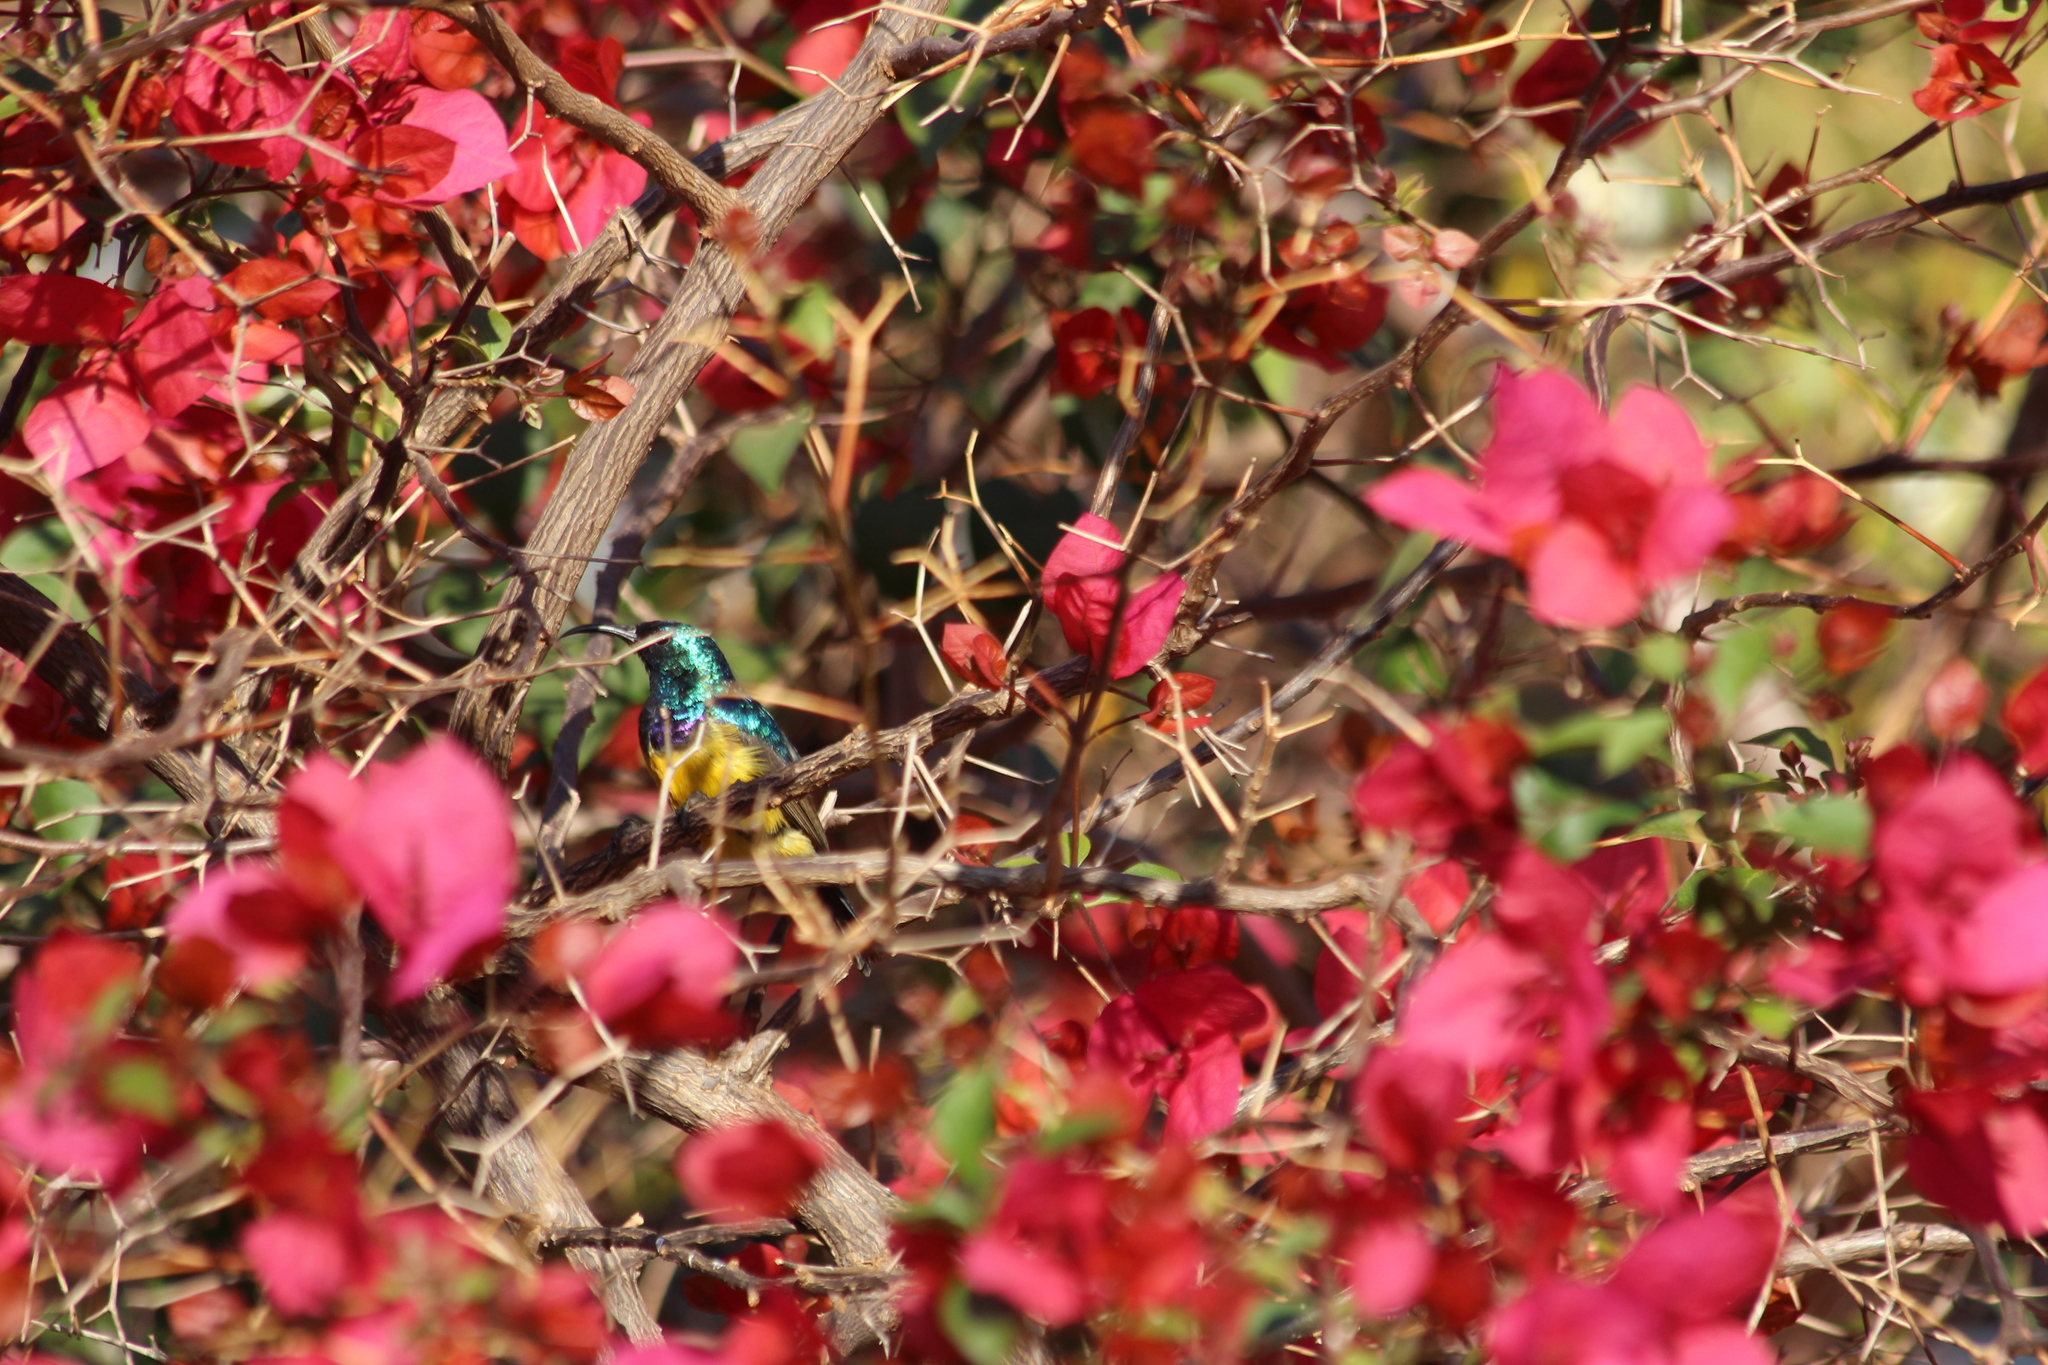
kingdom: Animalia
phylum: Chordata
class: Aves
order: Passeriformes
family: Nectariniidae
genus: Cinnyris
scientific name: Cinnyris venustus
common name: Variable sunbird
